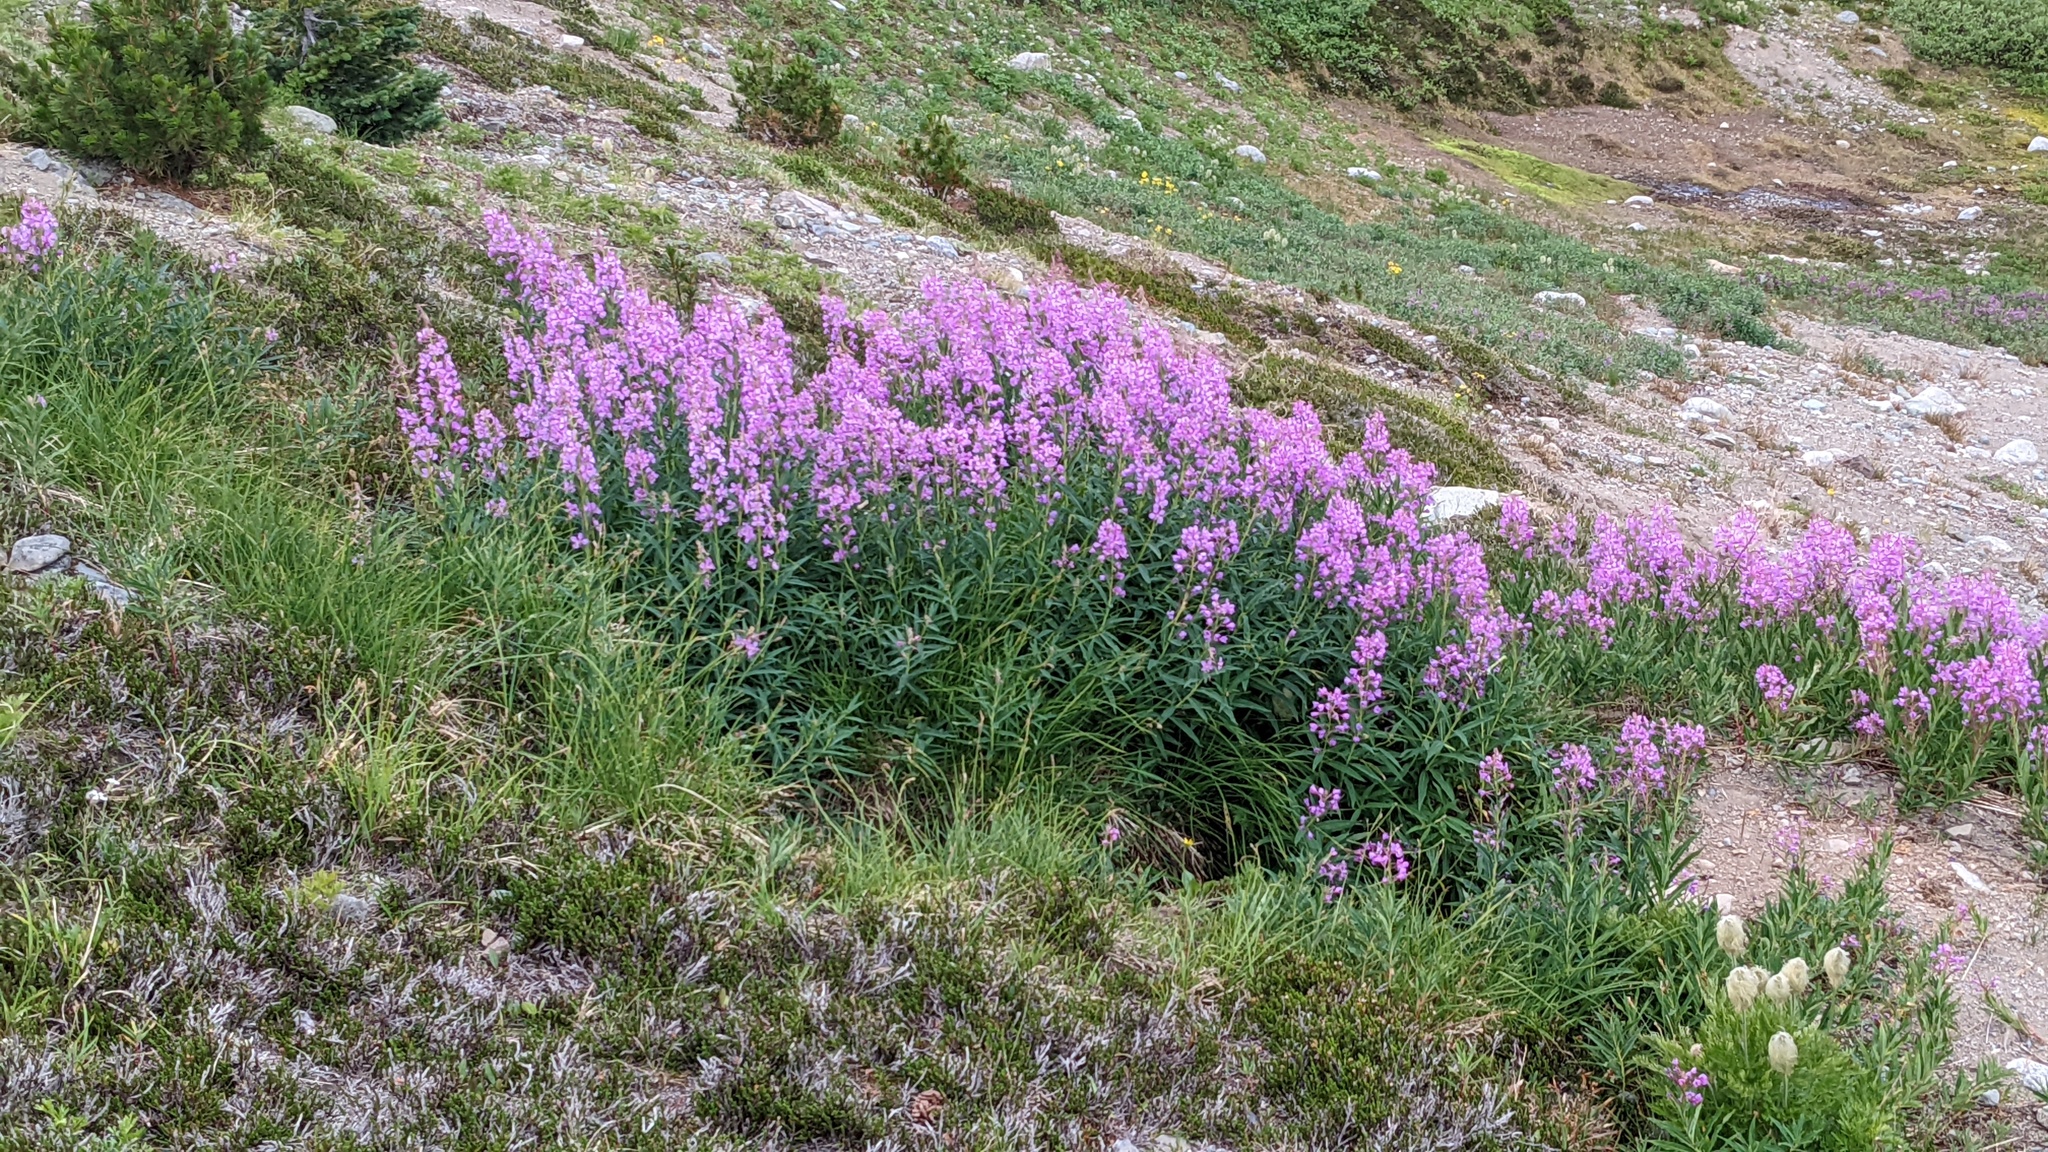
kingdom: Plantae
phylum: Tracheophyta
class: Magnoliopsida
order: Myrtales
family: Onagraceae
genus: Chamaenerion
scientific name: Chamaenerion angustifolium
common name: Fireweed
